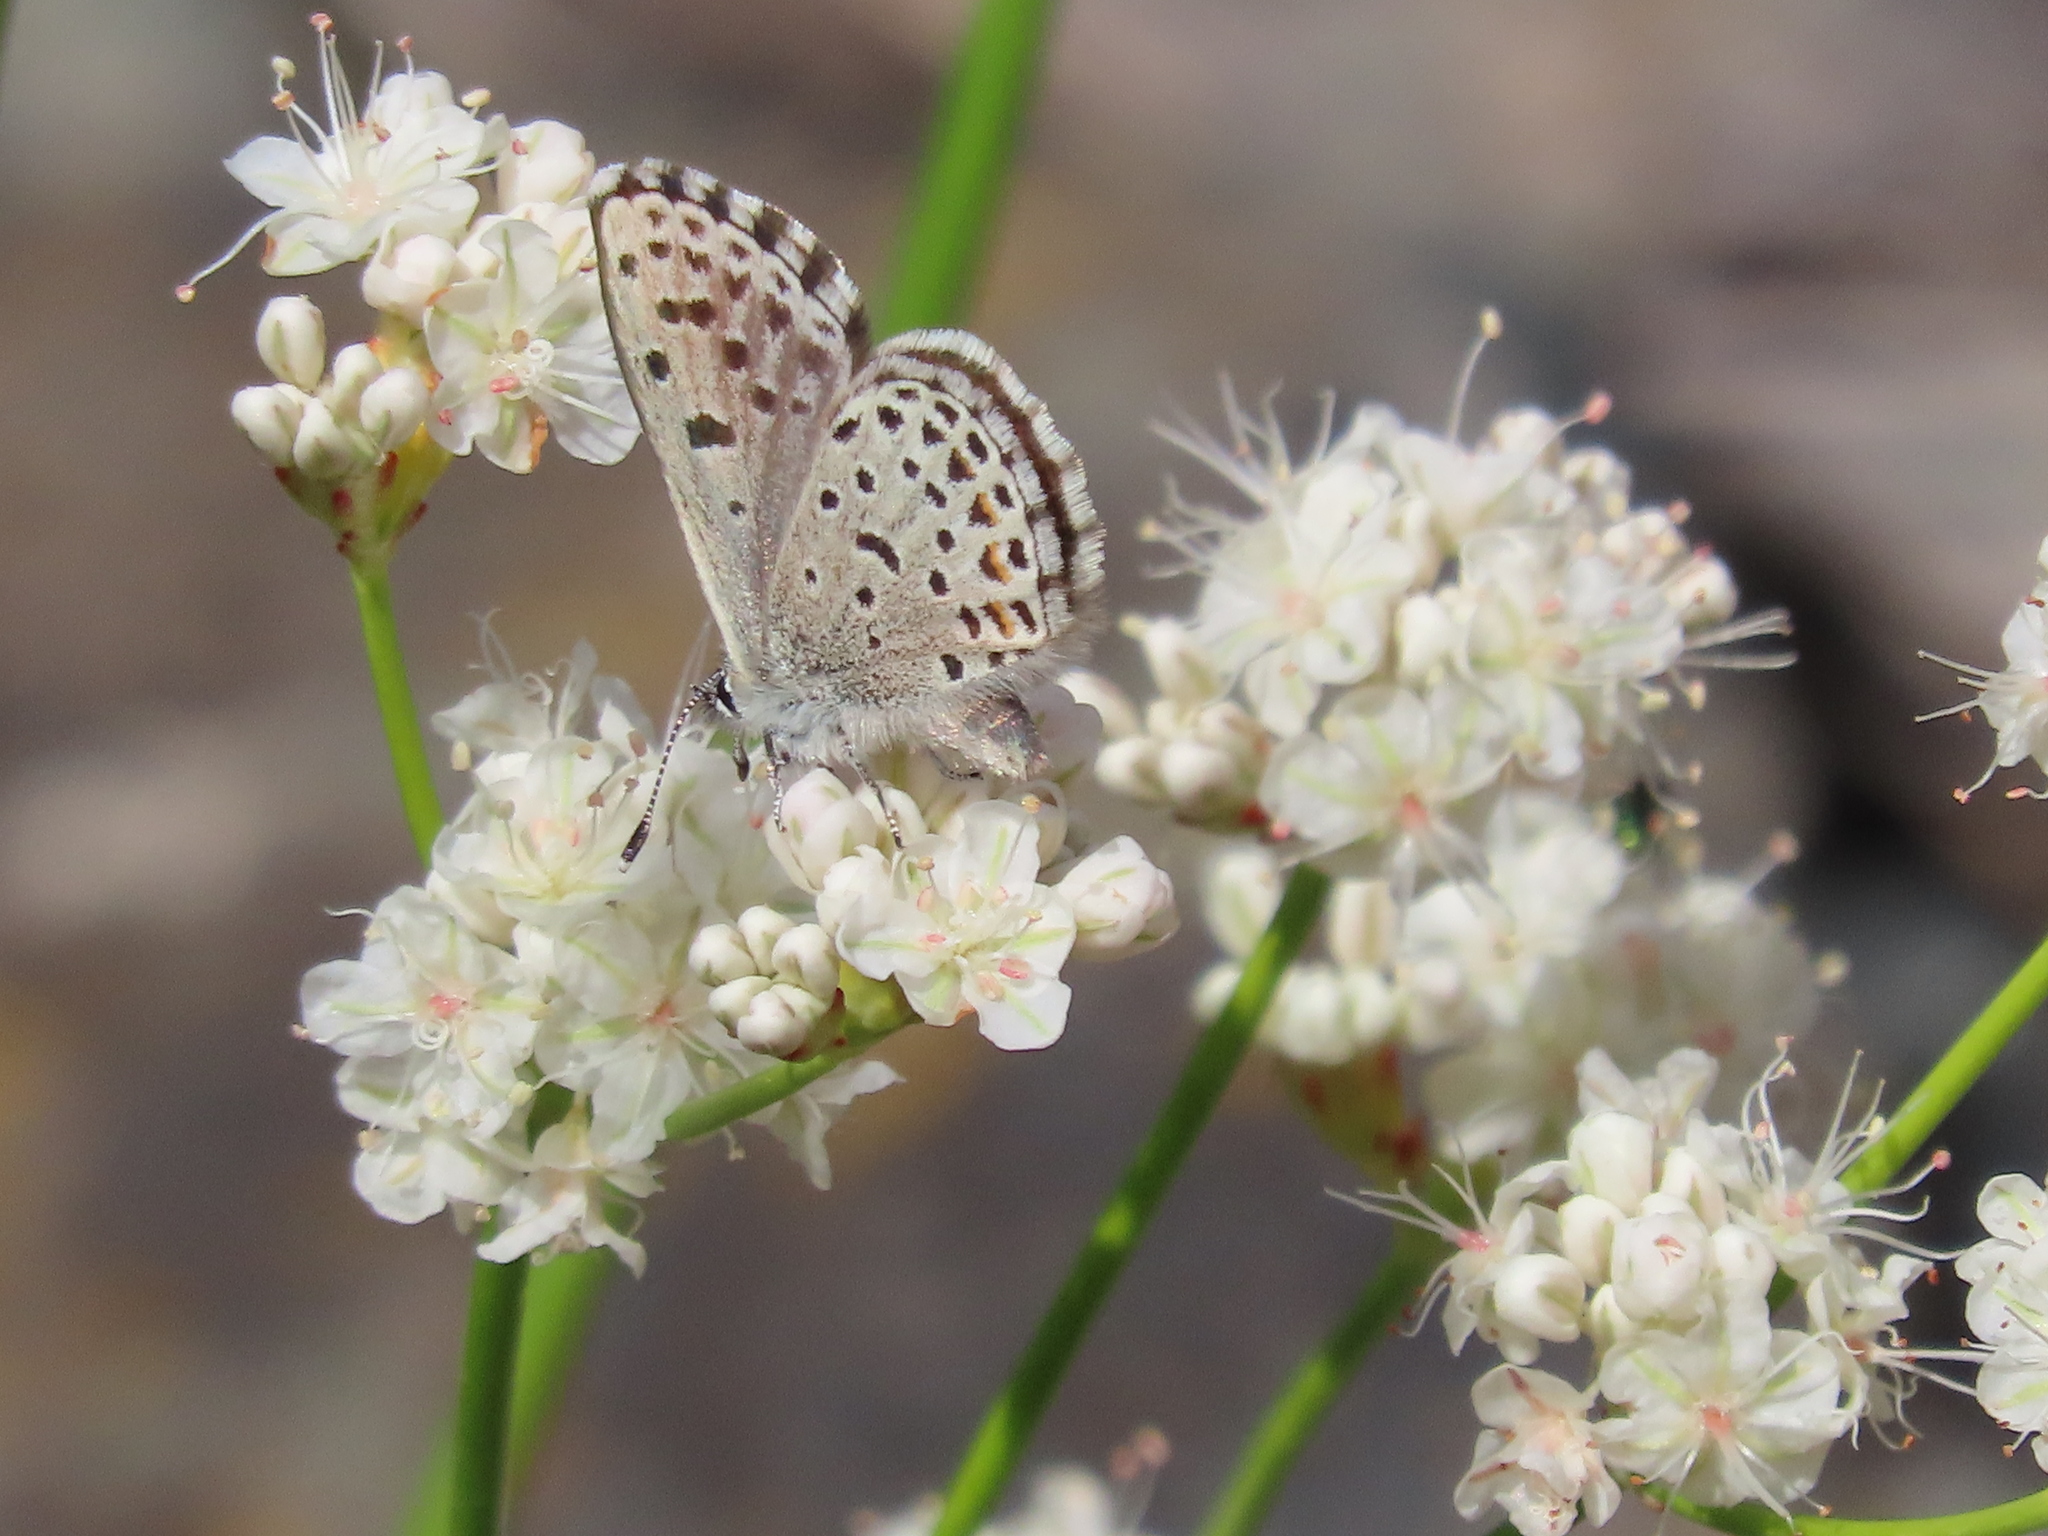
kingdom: Animalia
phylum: Arthropoda
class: Insecta
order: Lepidoptera
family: Lycaenidae
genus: Euphilotes
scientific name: Euphilotes enoptes
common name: Dotted blue
